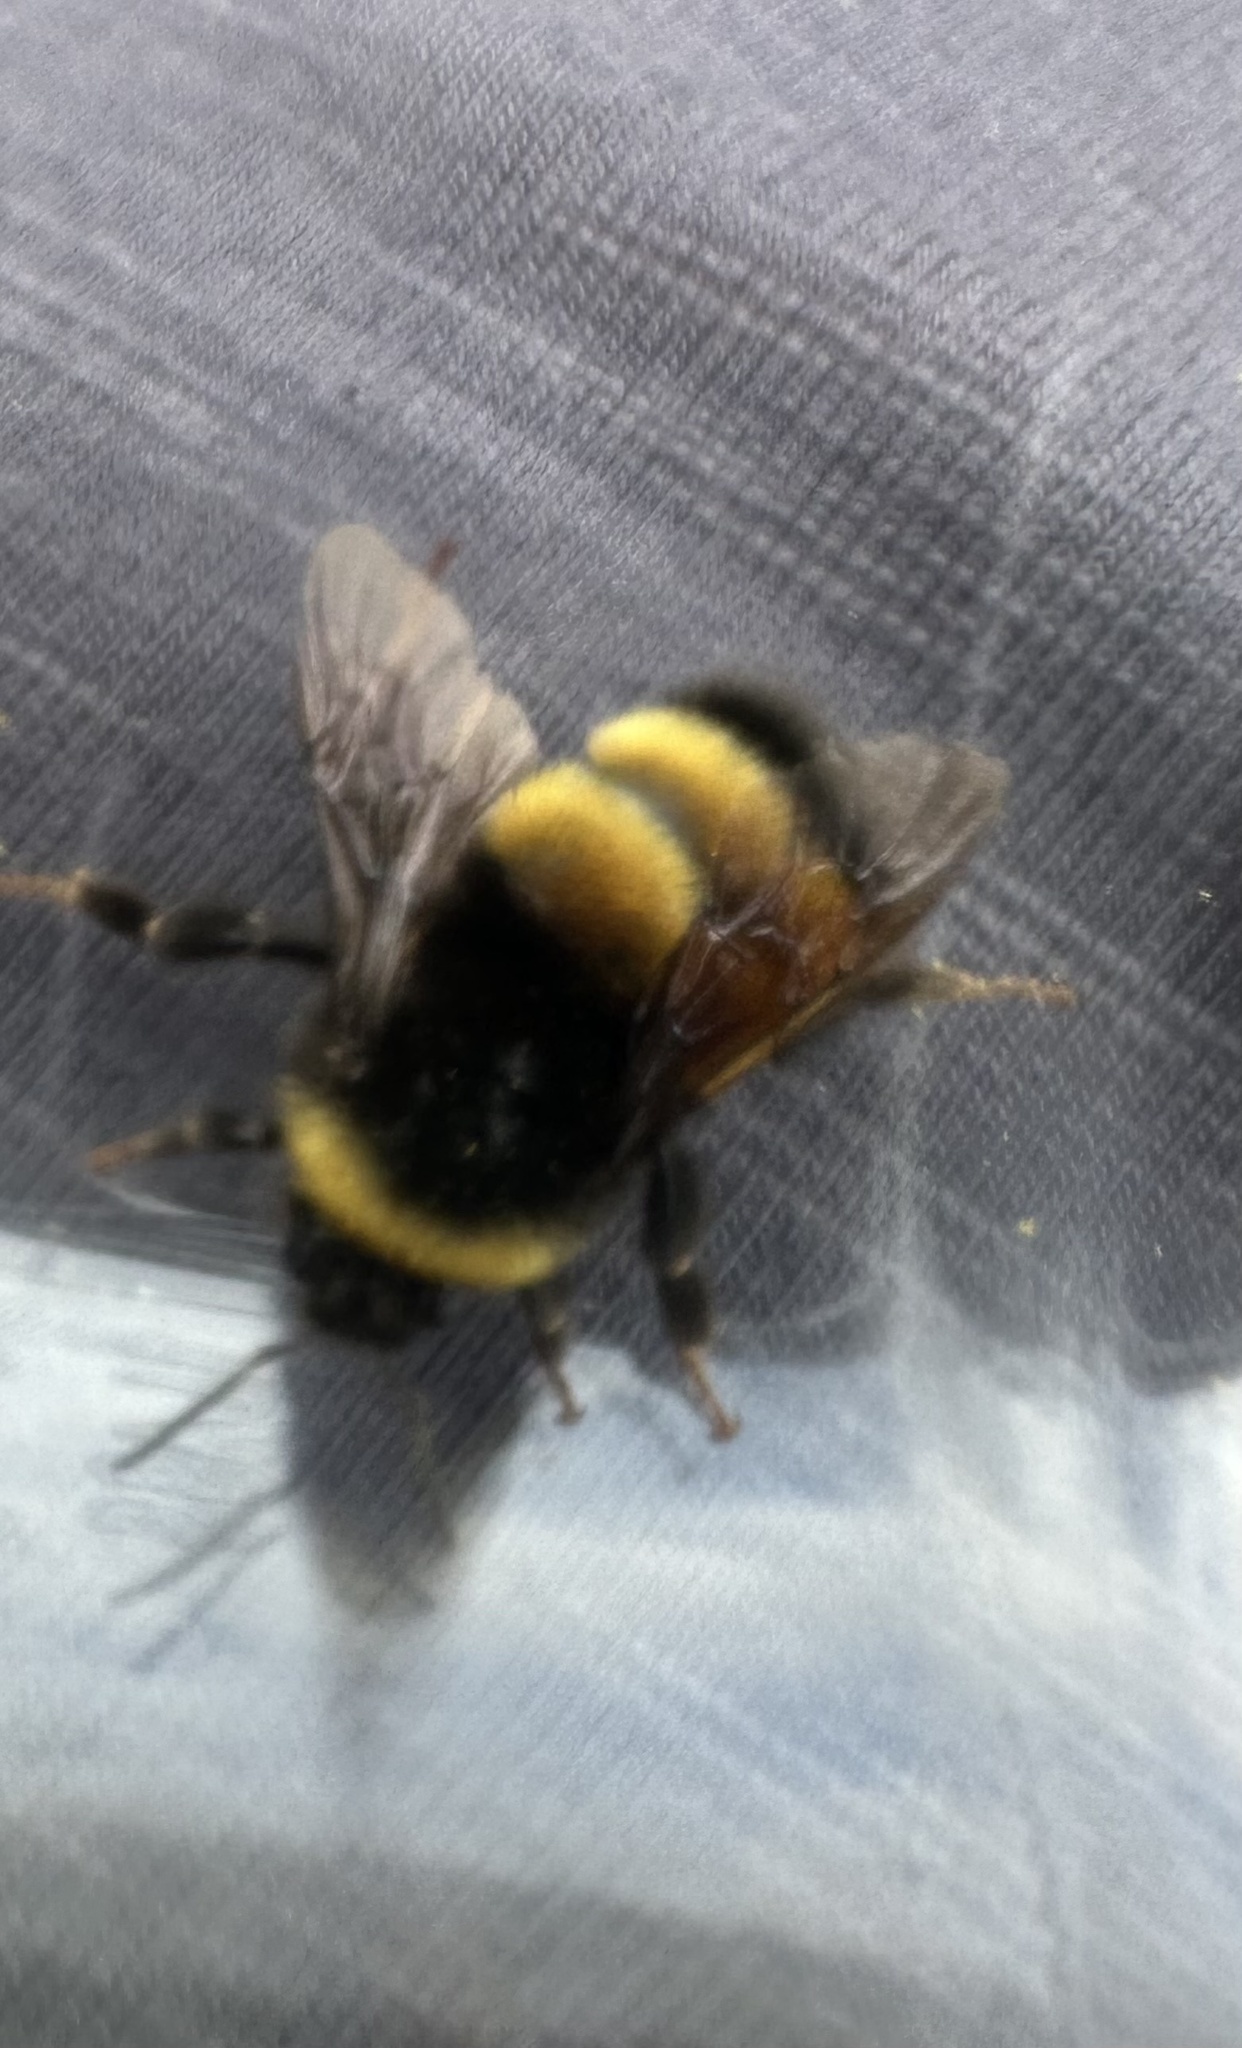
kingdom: Animalia
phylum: Arthropoda
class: Insecta
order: Hymenoptera
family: Apidae
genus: Bombus
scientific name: Bombus terricola
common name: Yellow-banded bumble bee
